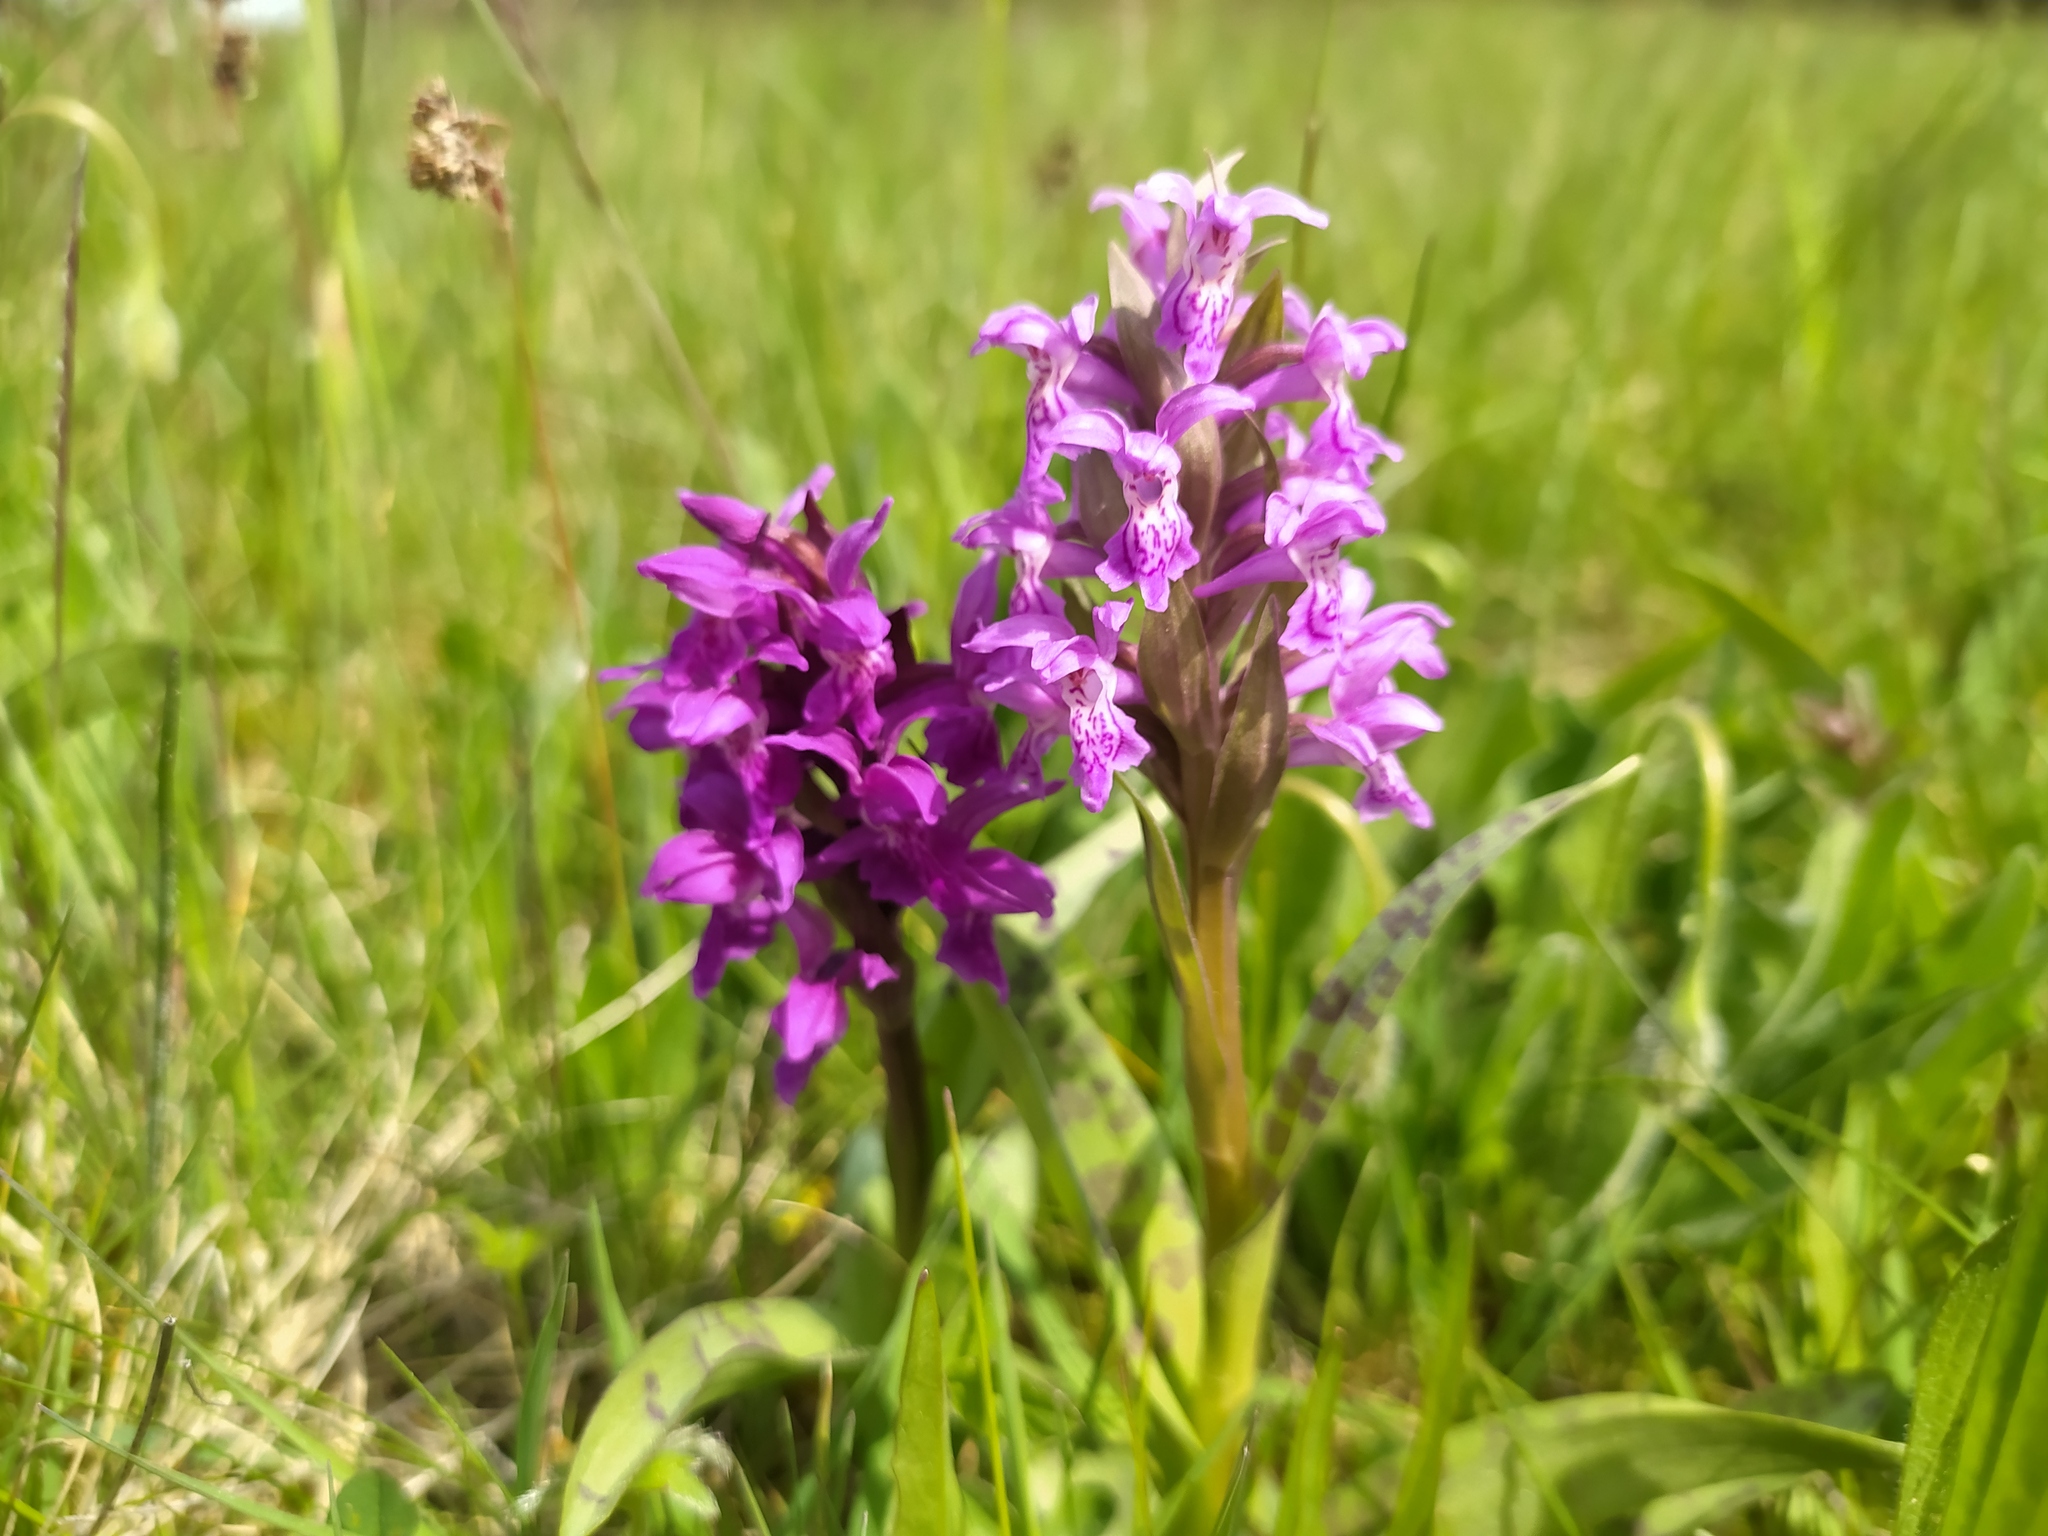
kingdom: Plantae
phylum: Tracheophyta
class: Liliopsida
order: Asparagales
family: Orchidaceae
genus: Dactylorhiza
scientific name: Dactylorhiza majalis
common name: Marsh orchid
